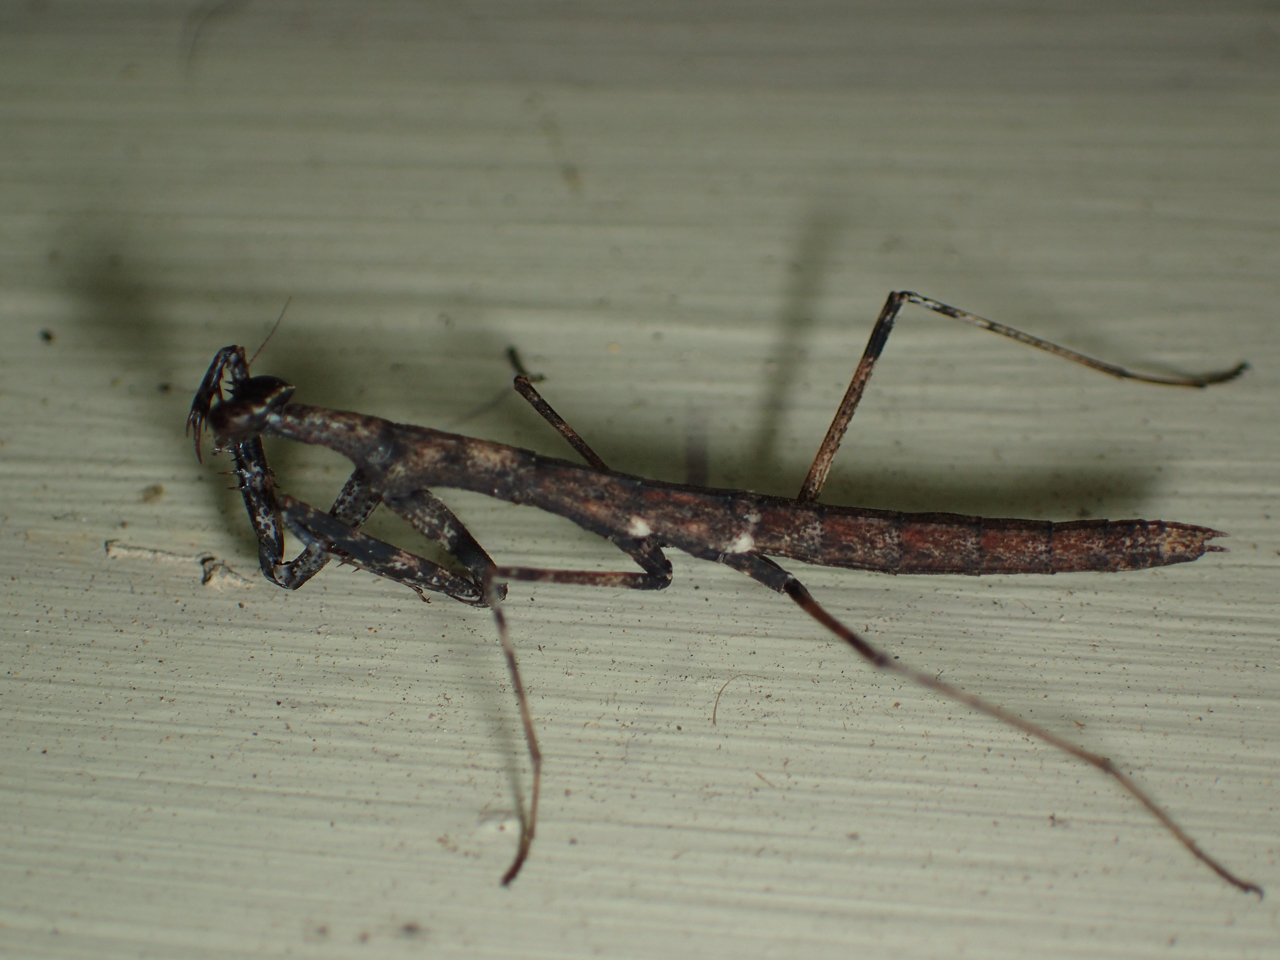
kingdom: Animalia
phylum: Arthropoda
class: Insecta
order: Mantodea
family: Thespidae
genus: Oligonicella
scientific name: Oligonicella scudderi
